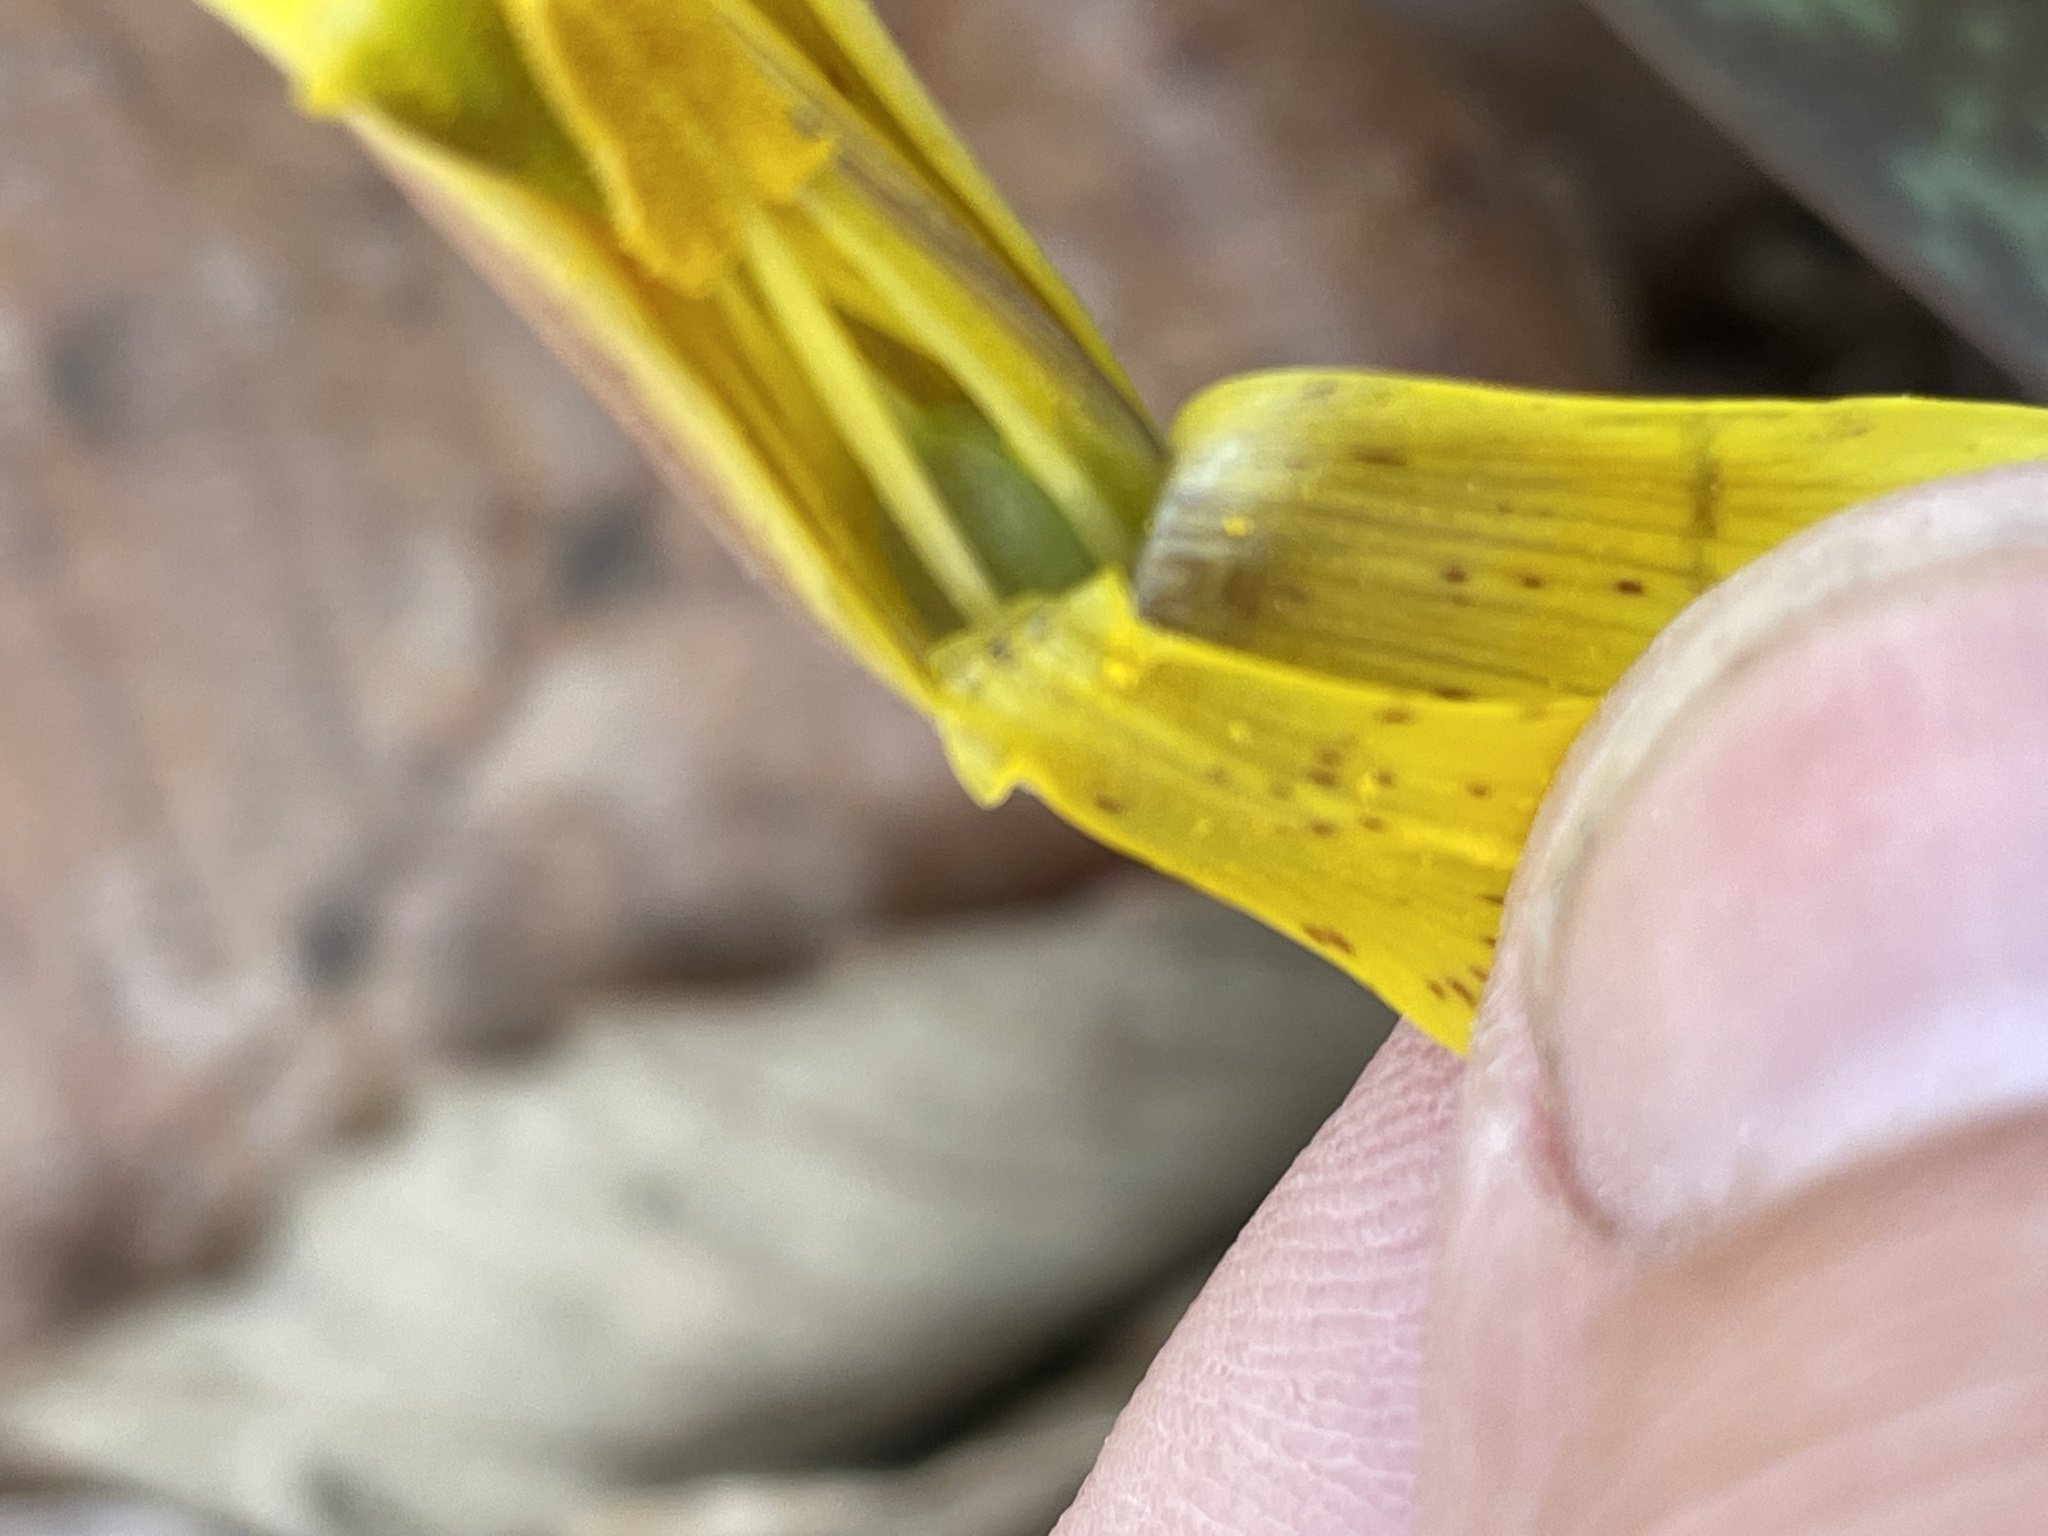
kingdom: Plantae
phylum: Tracheophyta
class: Liliopsida
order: Liliales
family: Liliaceae
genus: Erythronium
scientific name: Erythronium americanum
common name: Yellow adder's-tongue
